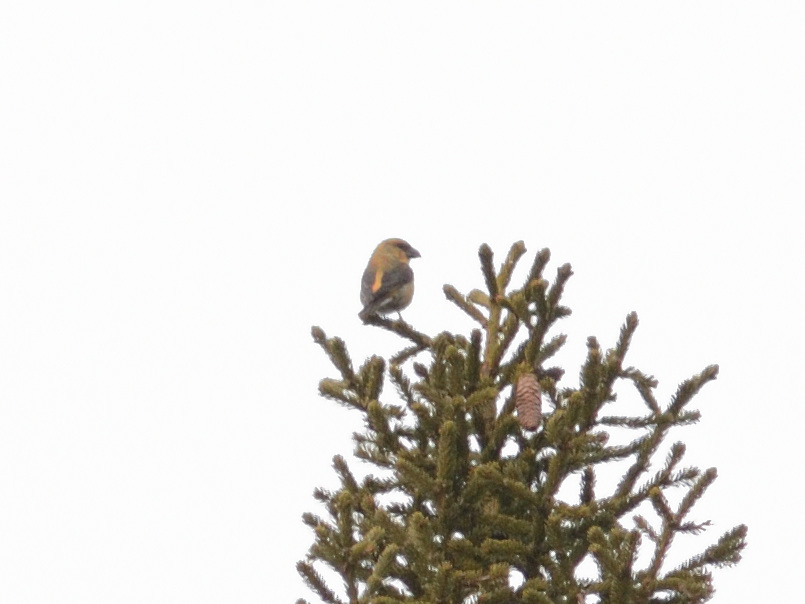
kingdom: Animalia
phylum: Chordata
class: Aves
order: Passeriformes
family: Fringillidae
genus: Loxia
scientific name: Loxia curvirostra
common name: Red crossbill
